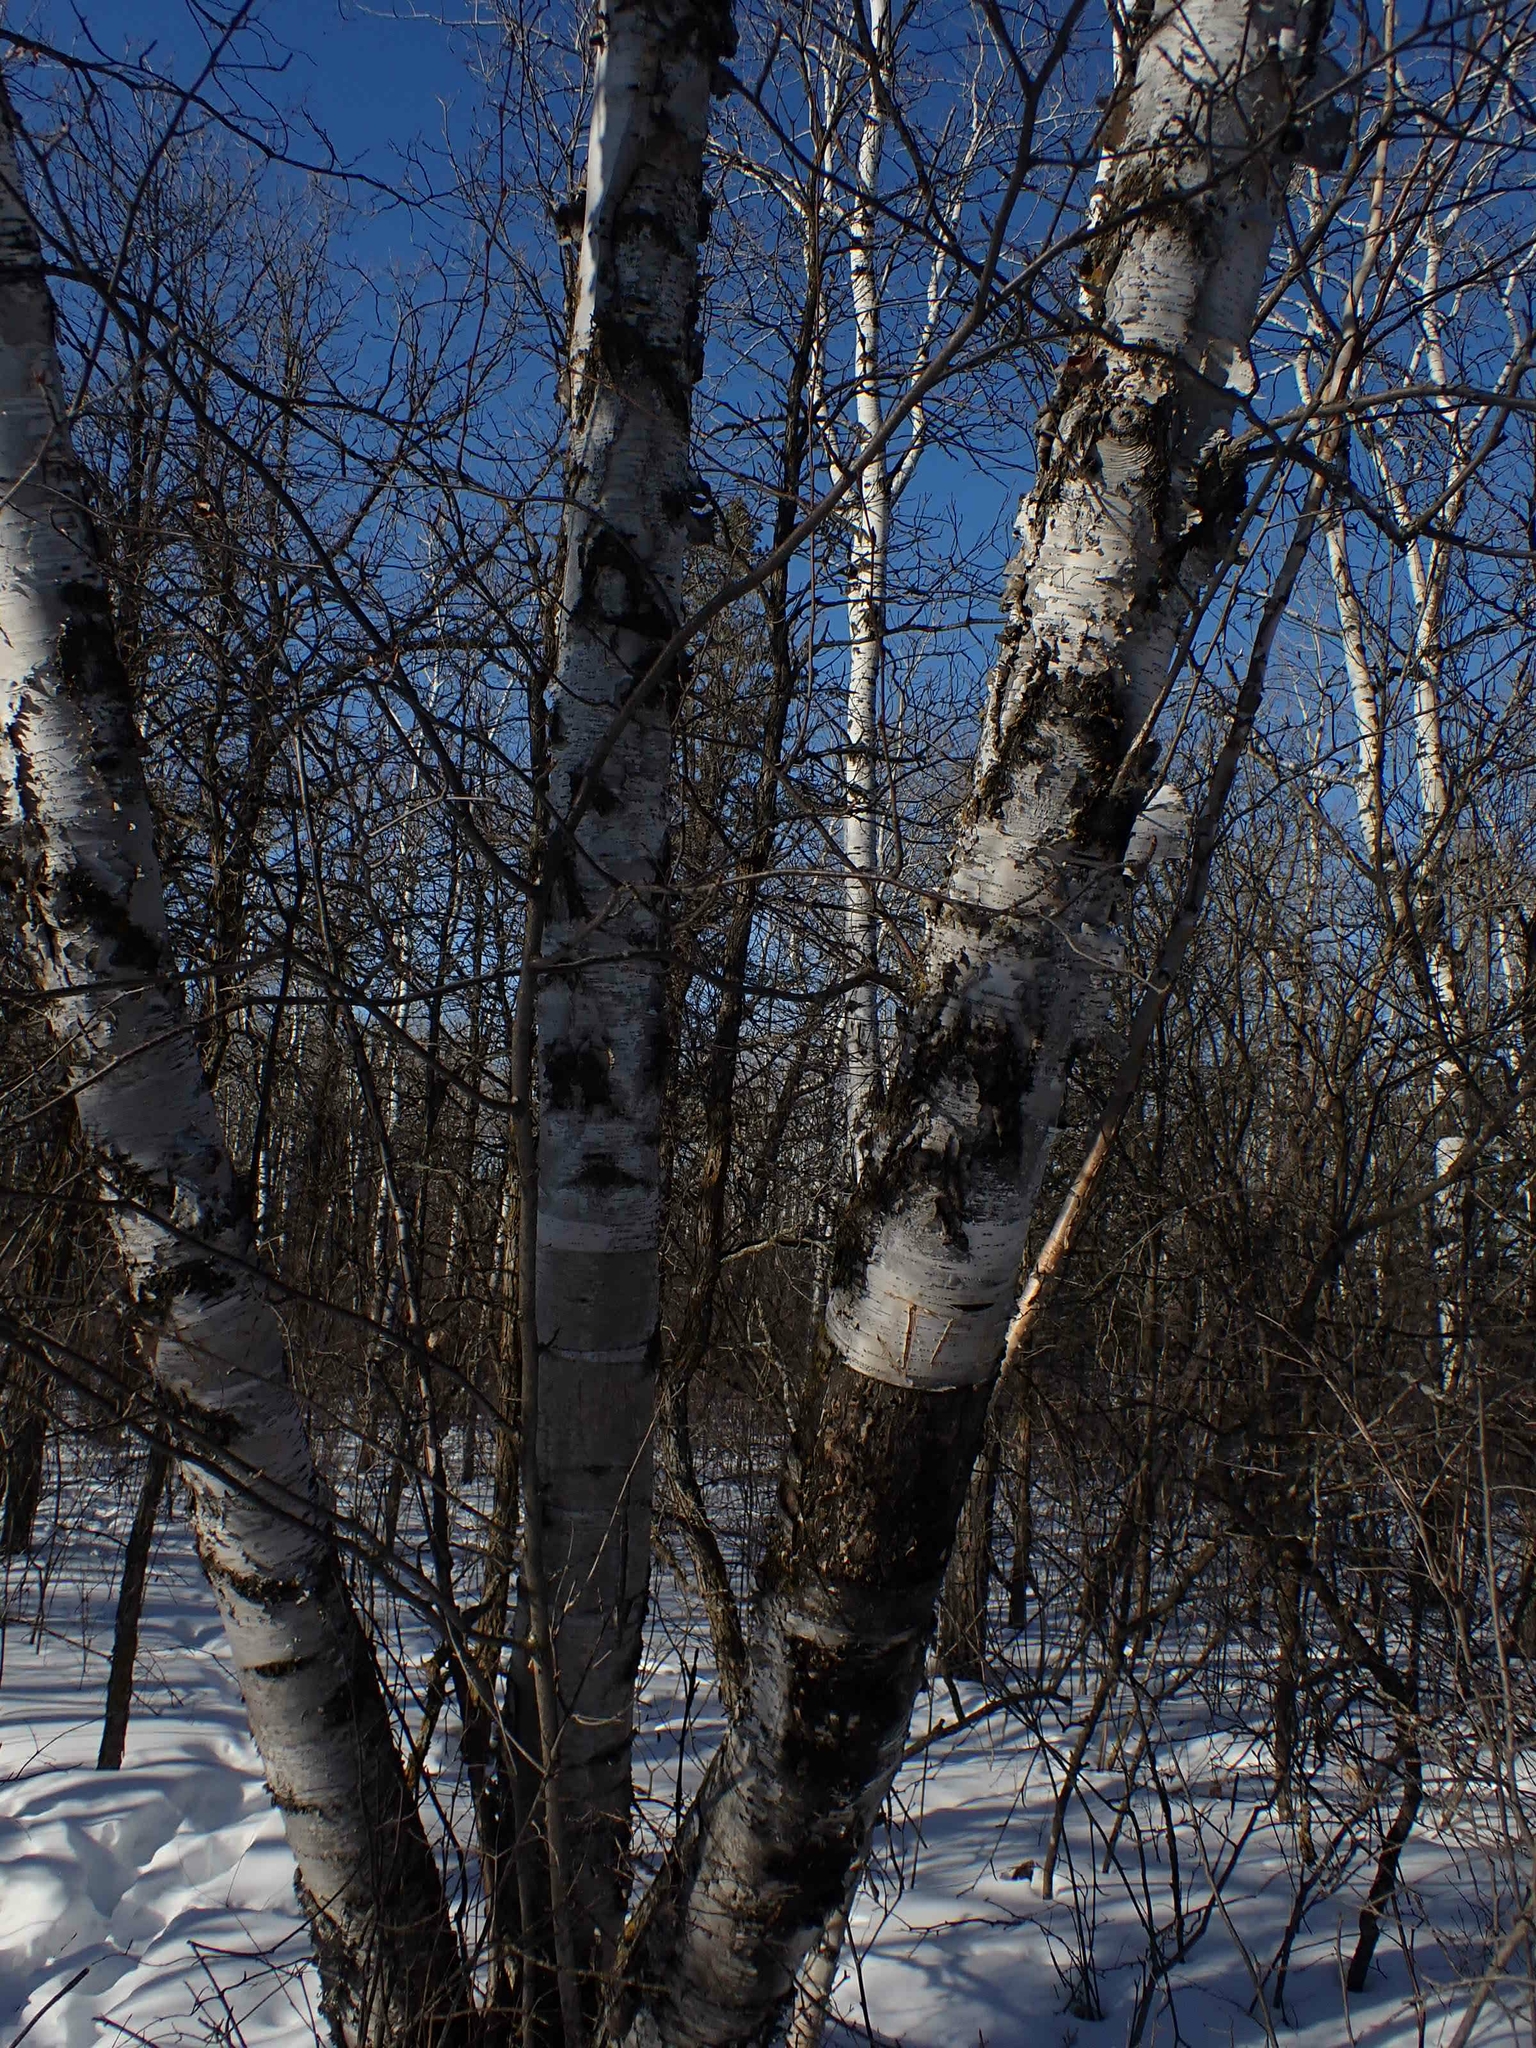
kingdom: Plantae
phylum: Tracheophyta
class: Magnoliopsida
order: Fagales
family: Betulaceae
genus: Betula
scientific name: Betula papyrifera
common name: Paper birch
